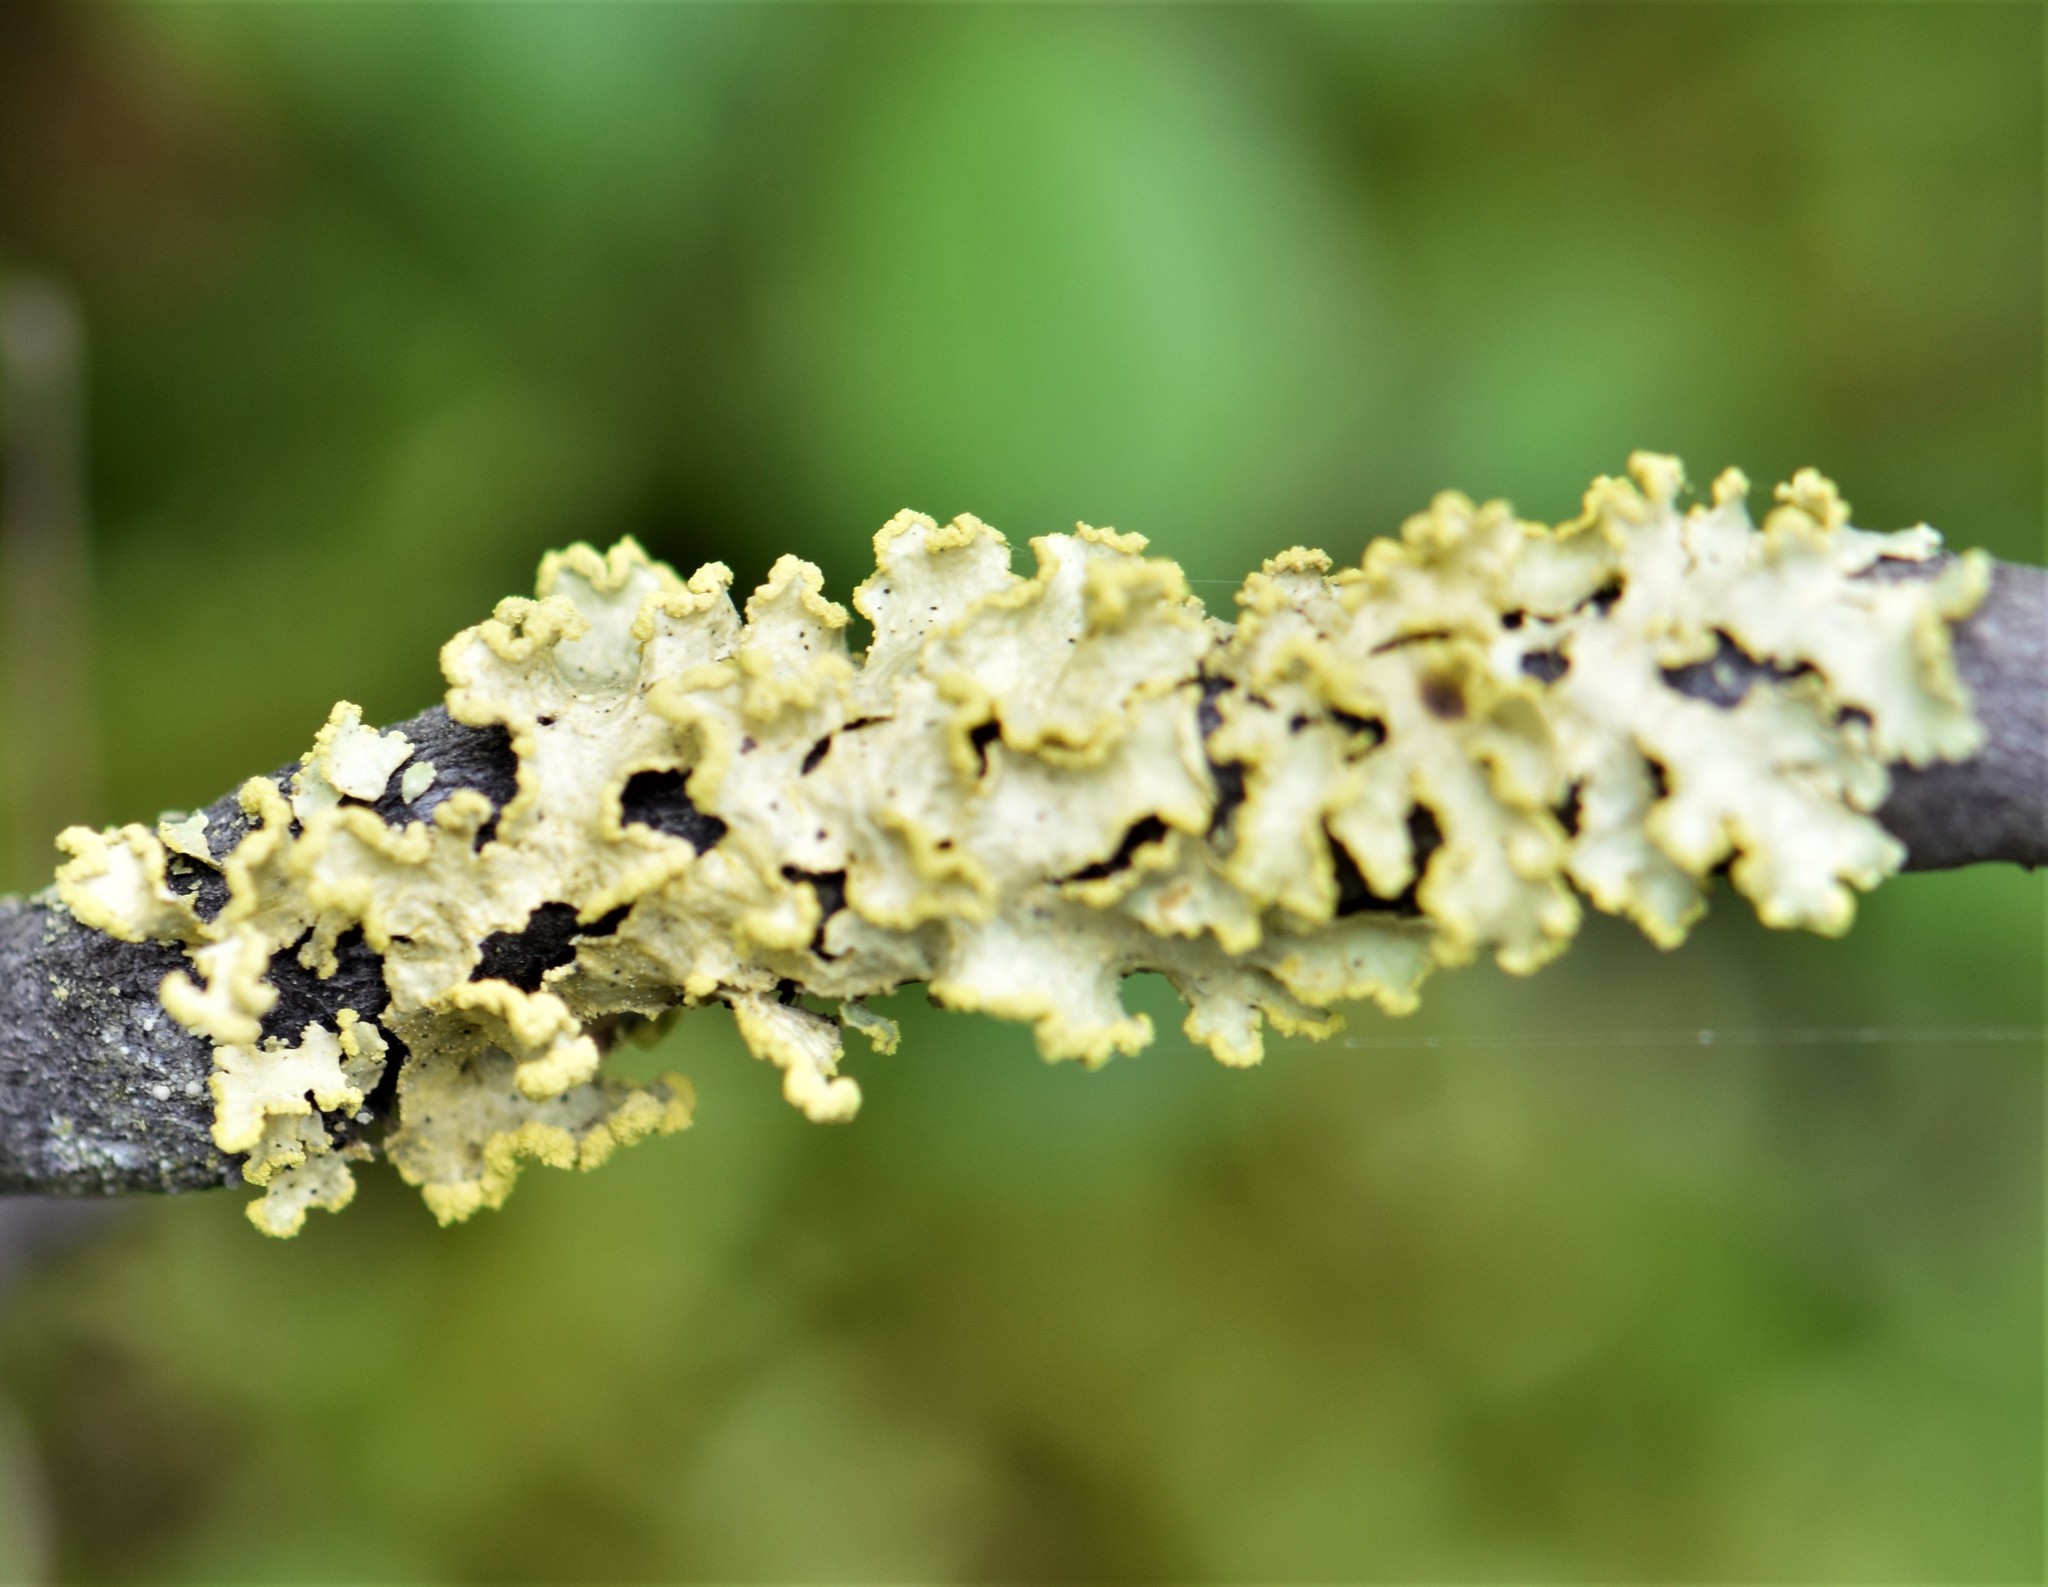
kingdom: Fungi
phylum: Ascomycota
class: Lecanoromycetes
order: Lecanorales
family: Parmeliaceae
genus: Vulpicida
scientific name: Vulpicida pinastri
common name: Powdered sunshine lichen
